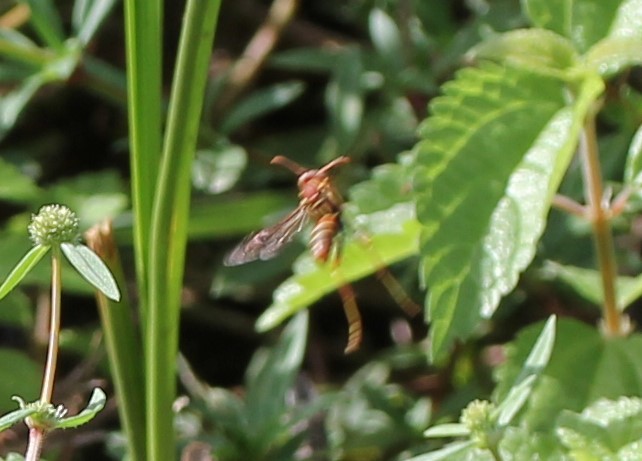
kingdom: Animalia
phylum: Arthropoda
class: Insecta
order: Hymenoptera
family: Vespidae
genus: Fuscopolistes
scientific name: Fuscopolistes
